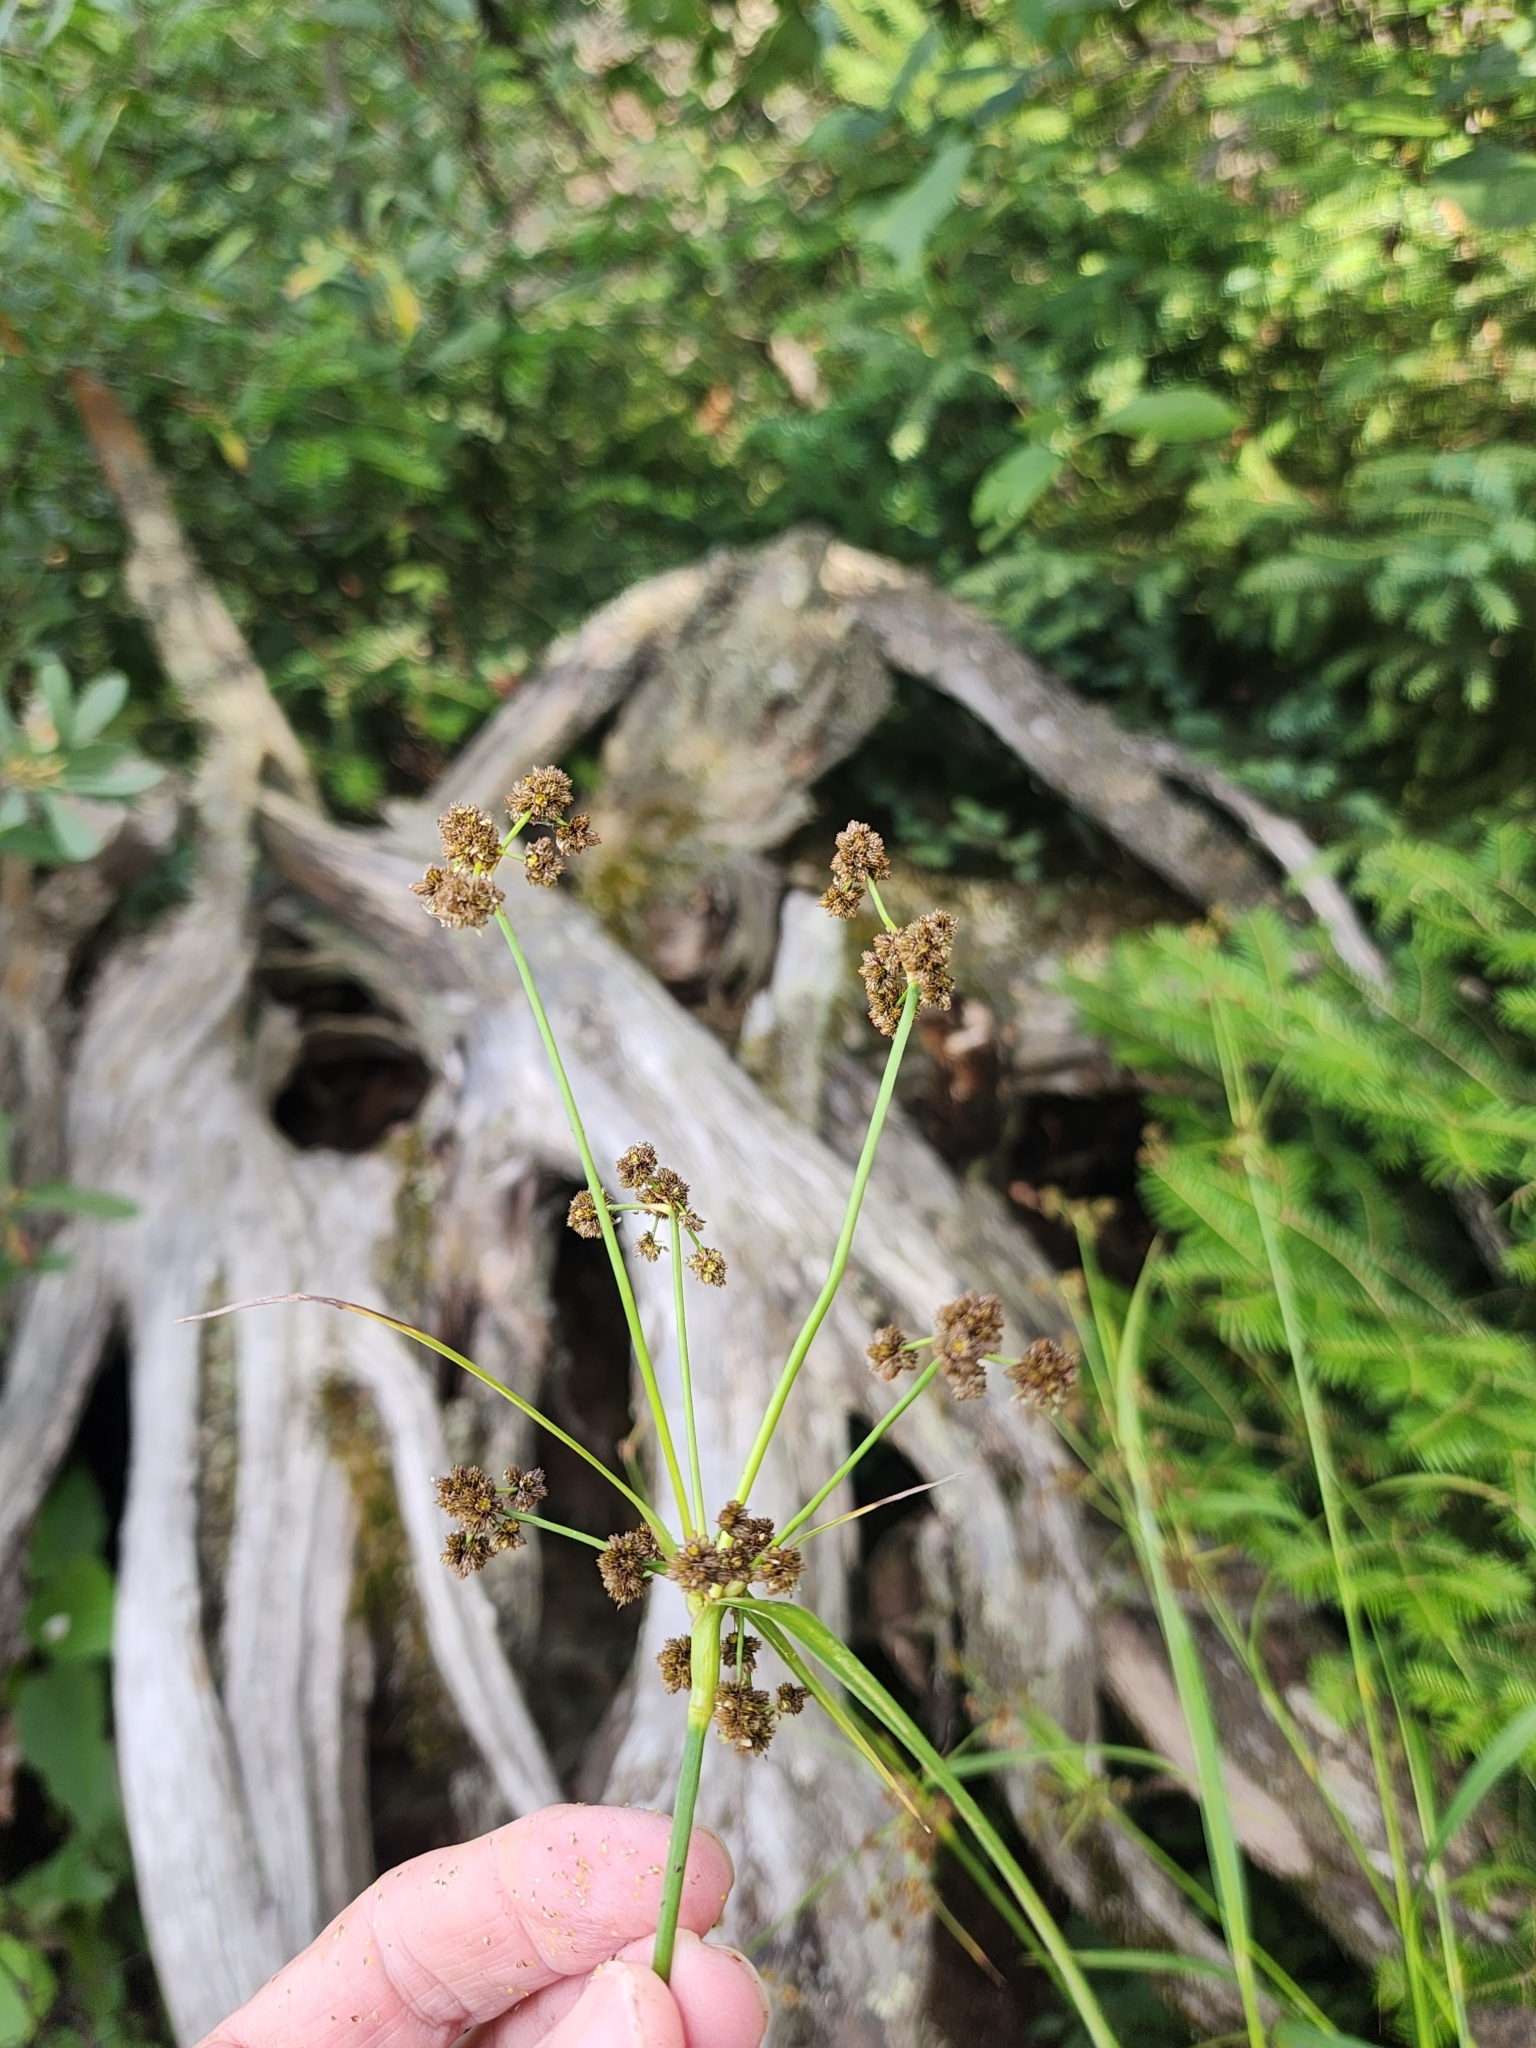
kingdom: Plantae
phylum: Tracheophyta
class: Liliopsida
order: Poales
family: Cyperaceae
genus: Scirpus
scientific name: Scirpus atrovirens
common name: Black bulrush
